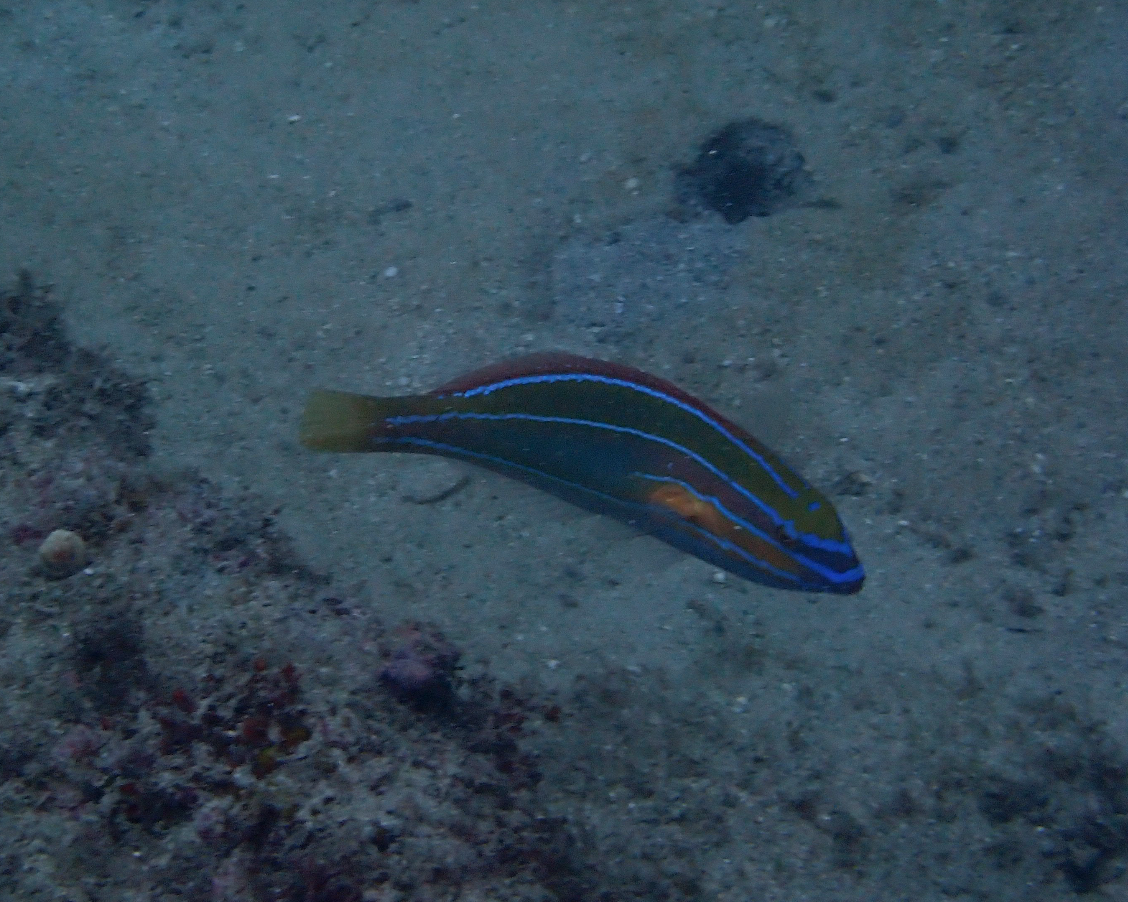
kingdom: Animalia
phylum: Chordata
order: Perciformes
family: Labridae
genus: Stethojulis
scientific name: Stethojulis trilineata
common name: Blue-ribbon wrasse
